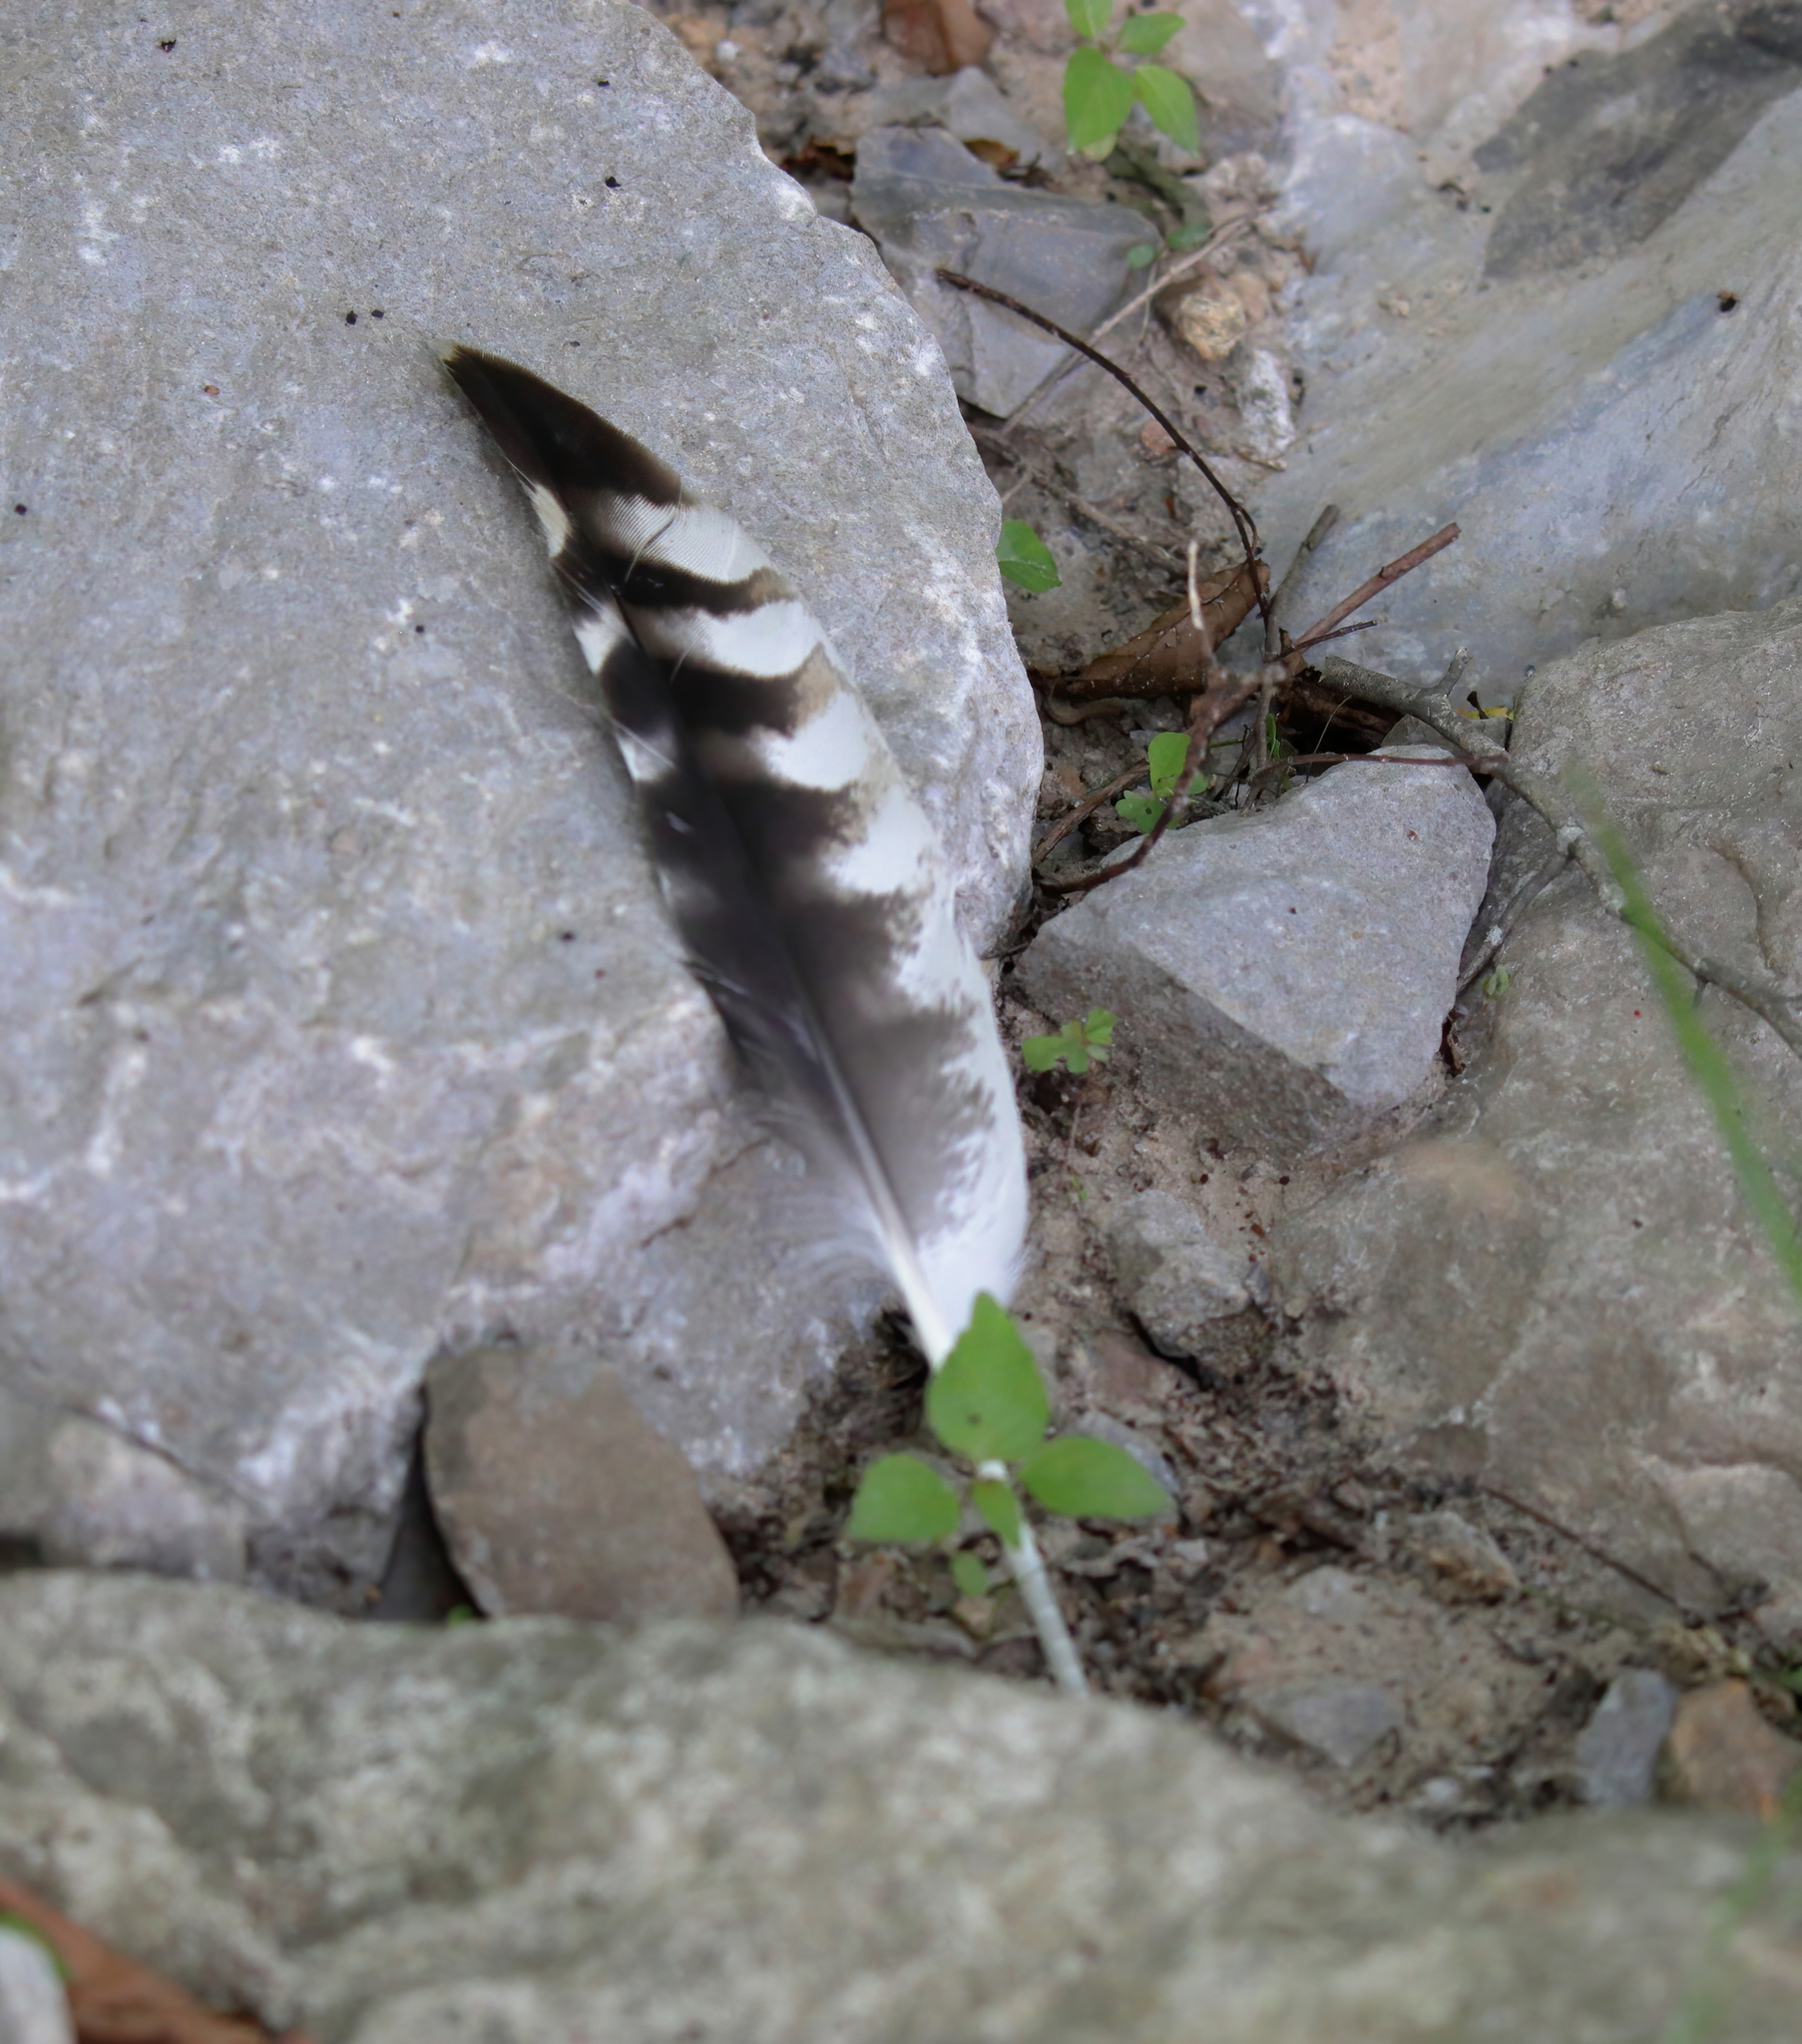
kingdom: Animalia
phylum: Chordata
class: Aves
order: Accipitriformes
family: Accipitridae
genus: Buteo
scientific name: Buteo lineatus
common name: Red-shouldered hawk
